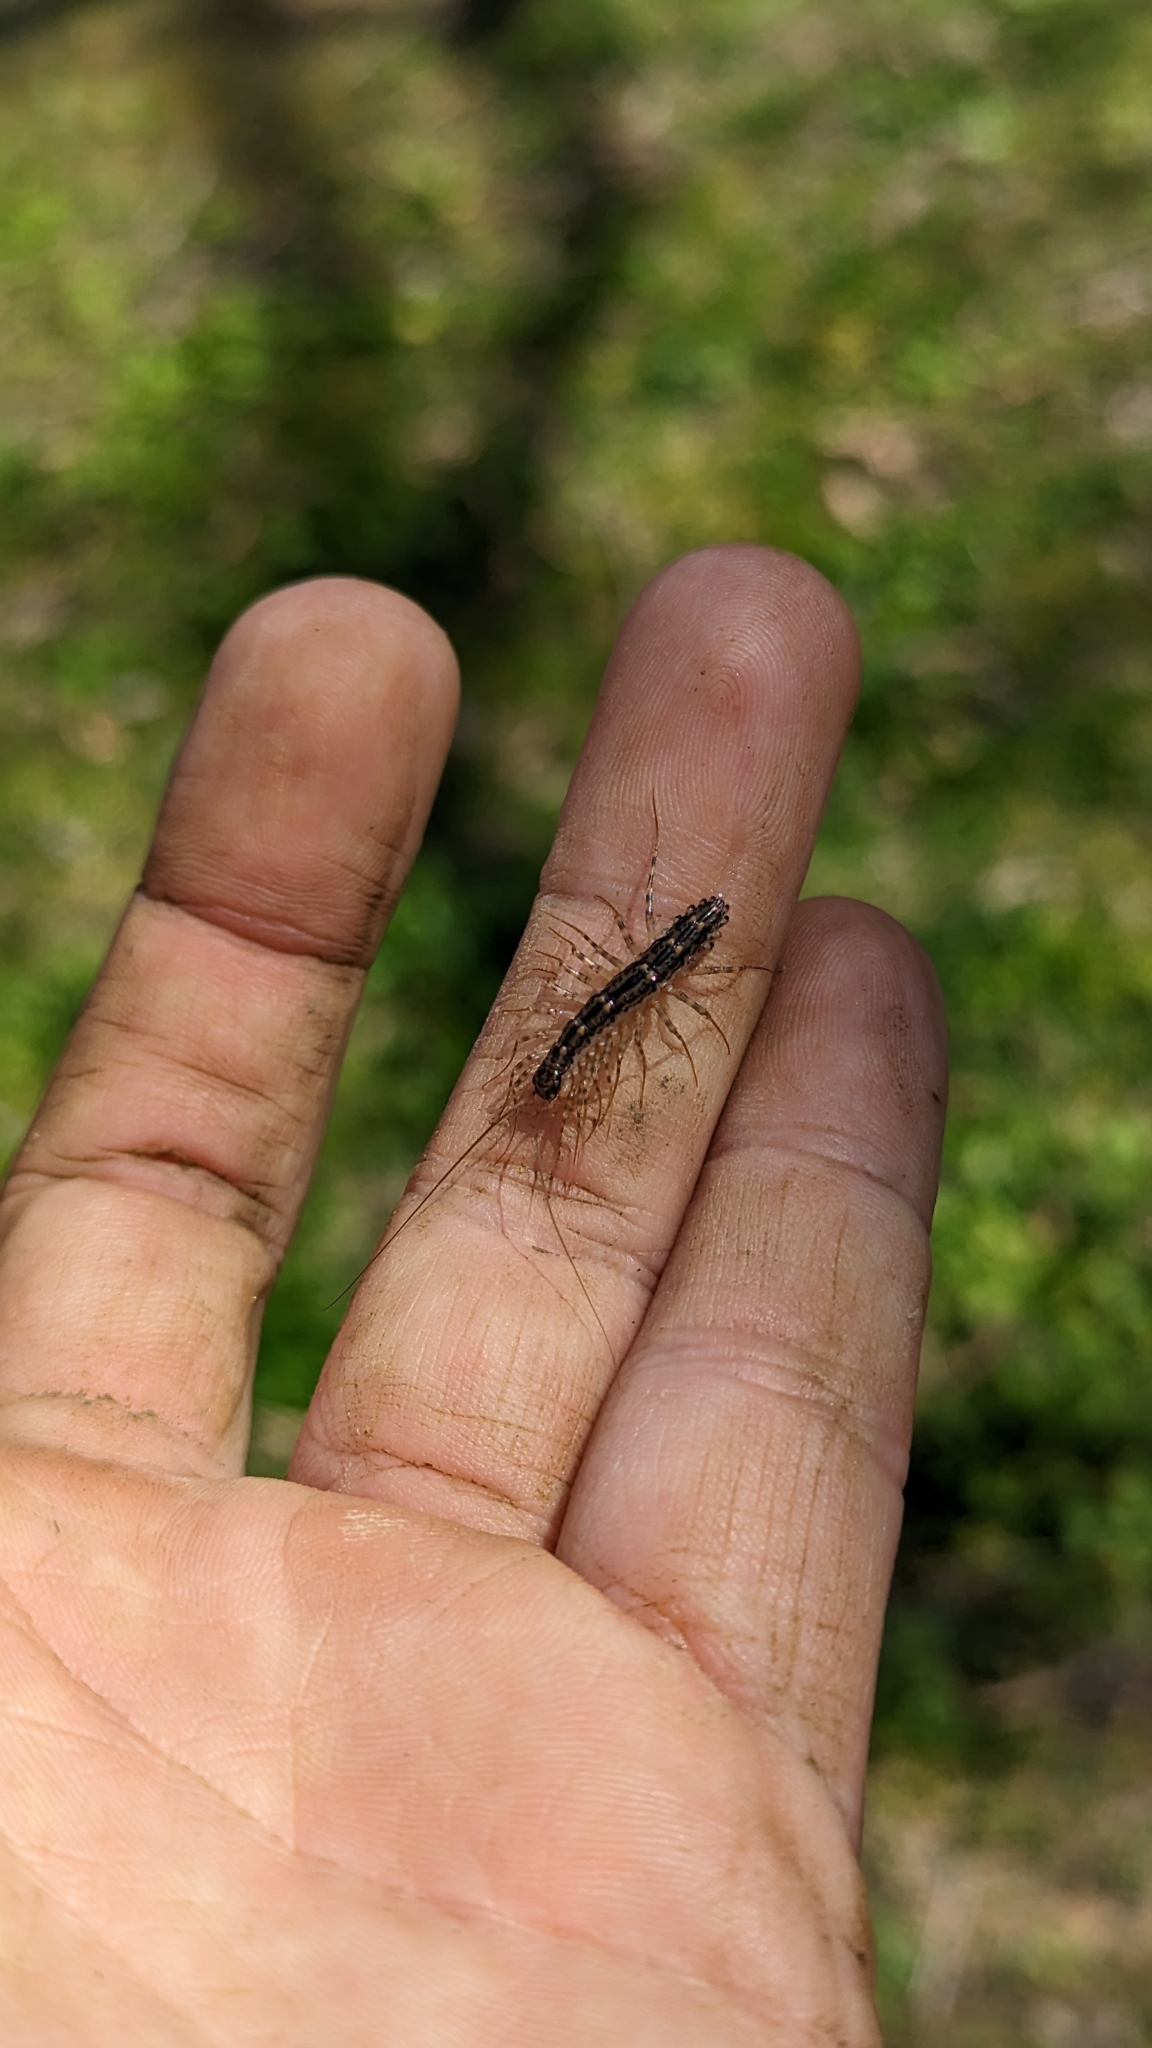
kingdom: Animalia
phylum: Arthropoda
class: Chilopoda
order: Scutigeromorpha
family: Scutigeridae
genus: Thereuonema
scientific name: Thereuonema tuberculata
